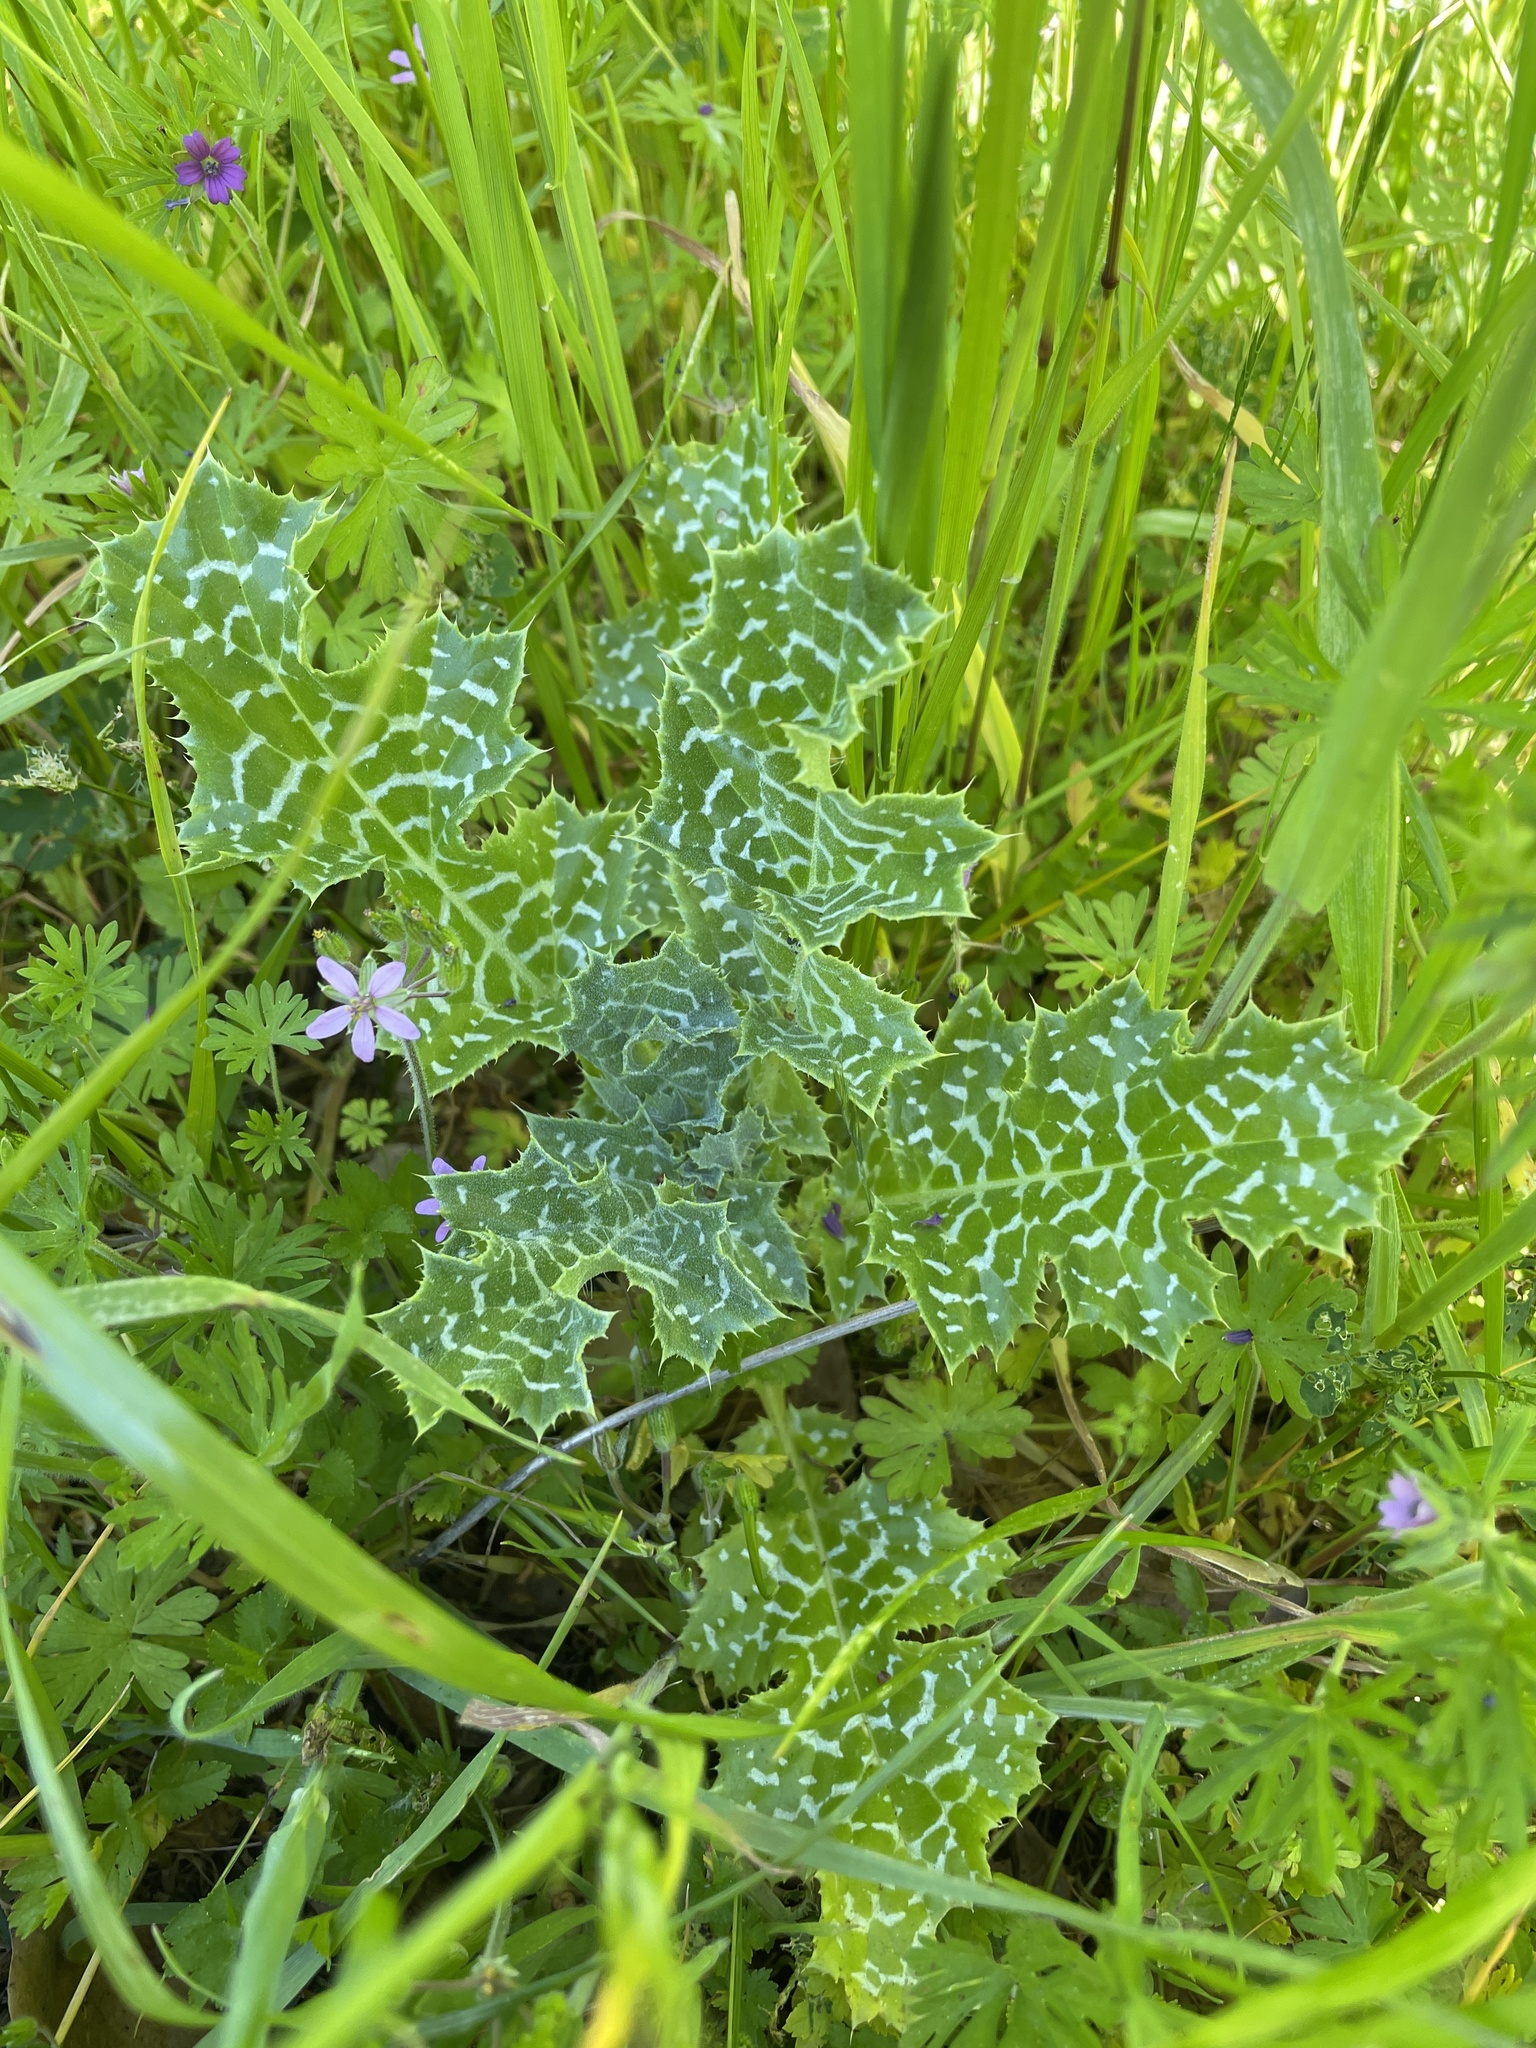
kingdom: Plantae
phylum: Tracheophyta
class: Magnoliopsida
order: Asterales
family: Asteraceae
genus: Silybum
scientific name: Silybum marianum
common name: Milk thistle
